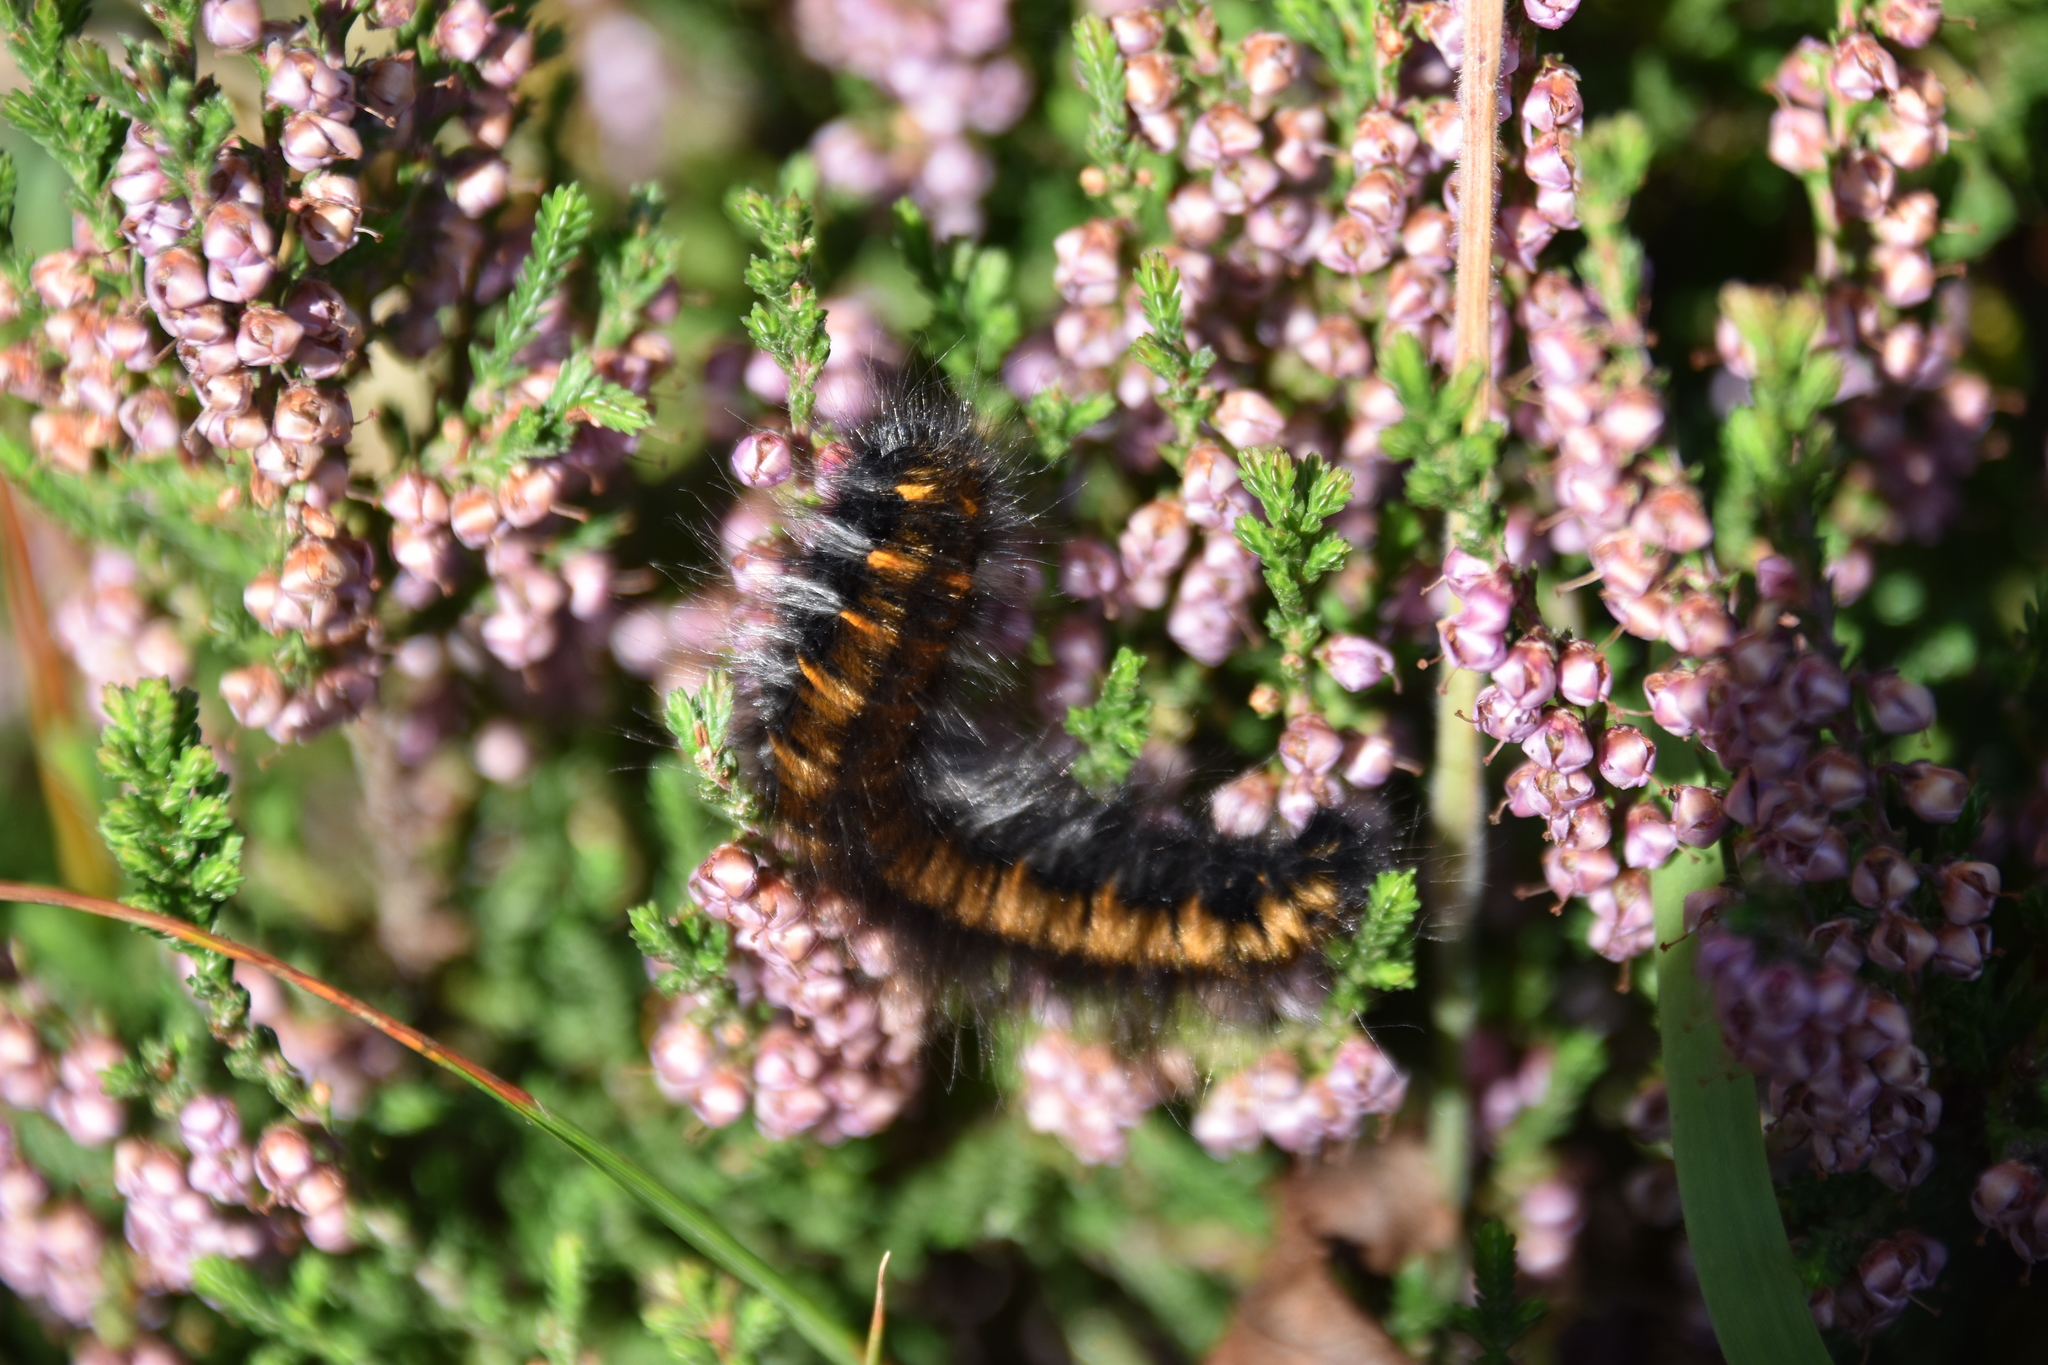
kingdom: Animalia
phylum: Arthropoda
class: Insecta
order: Lepidoptera
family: Lasiocampidae
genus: Macrothylacia
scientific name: Macrothylacia rubi
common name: Fox moth
